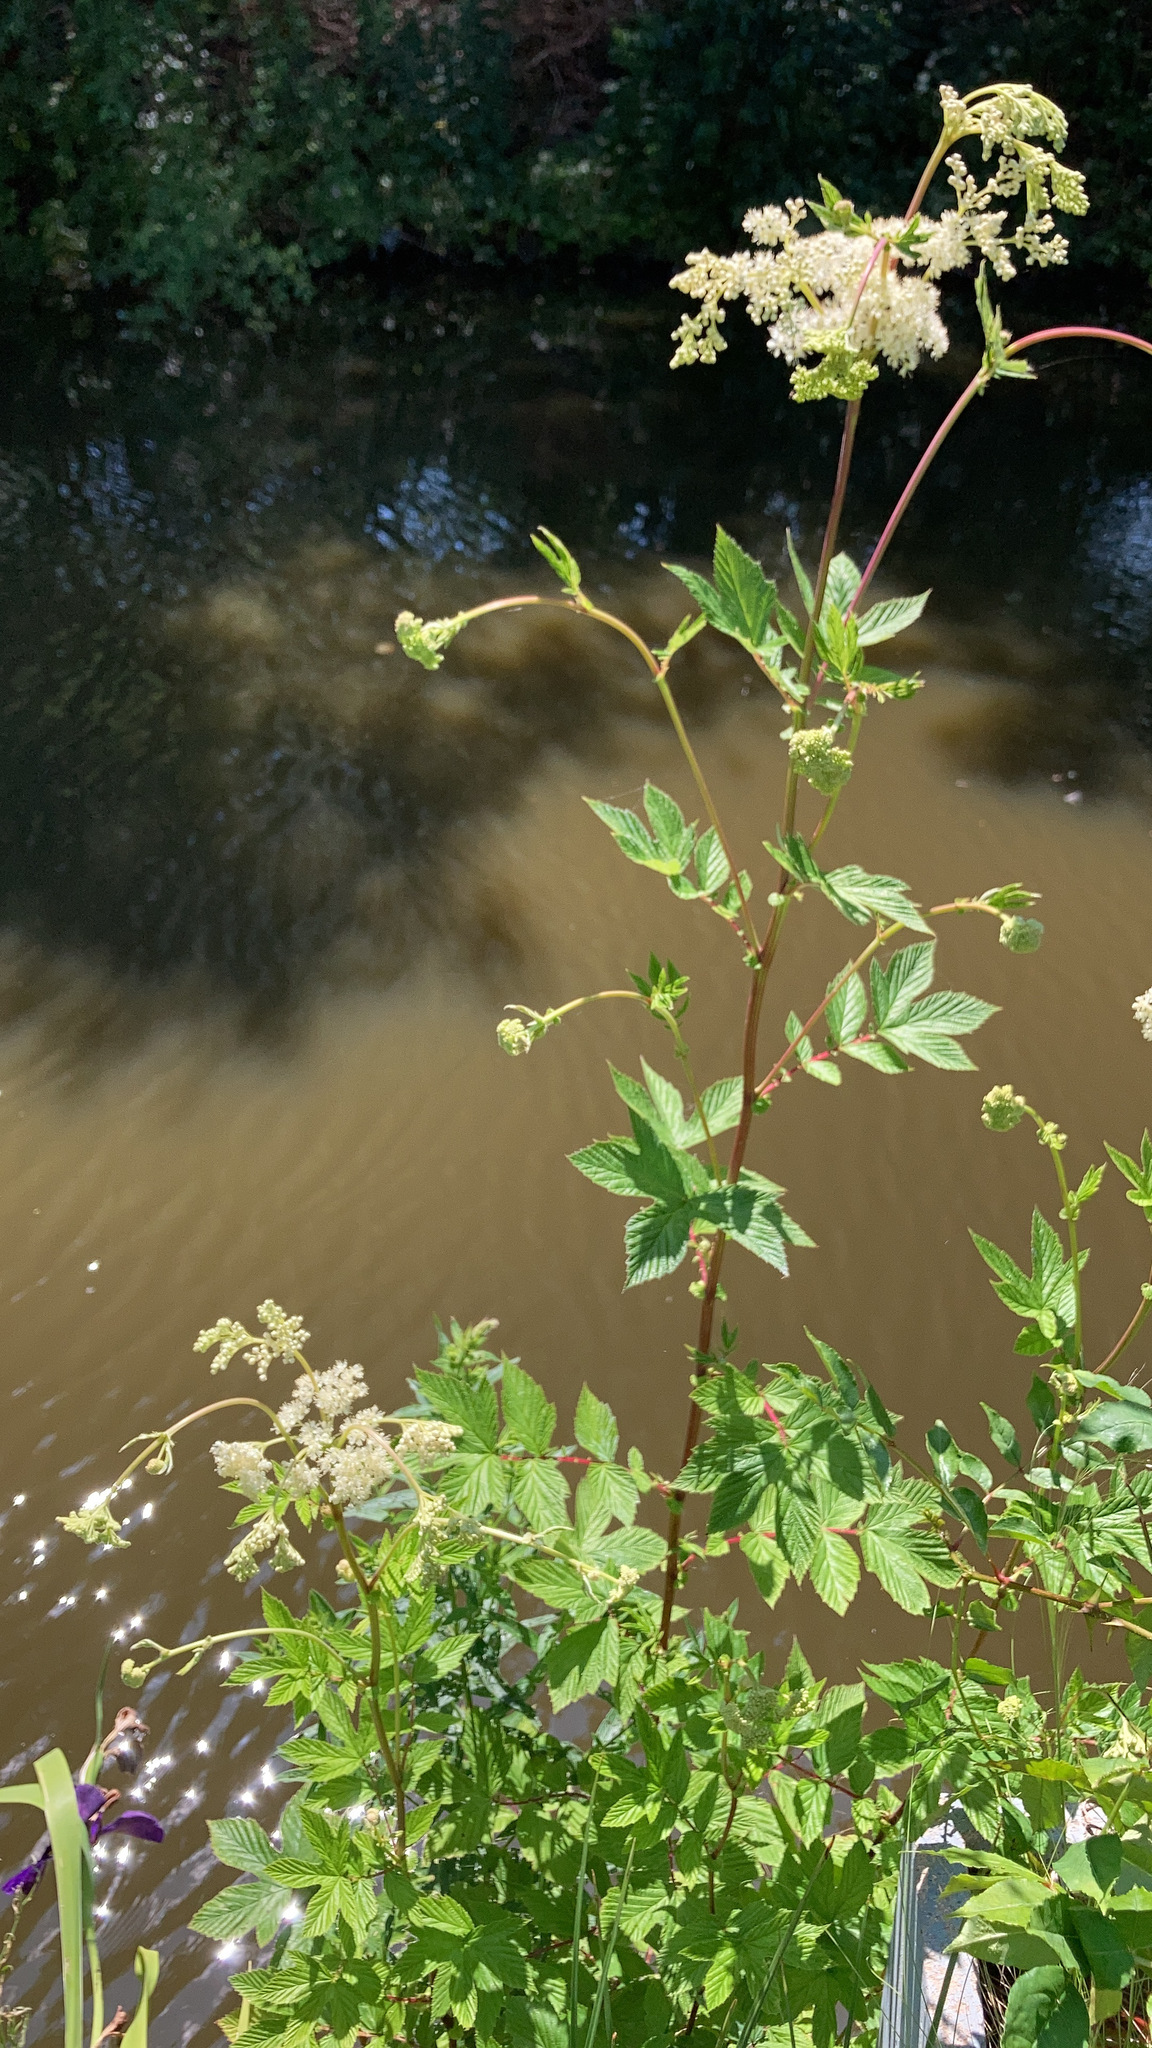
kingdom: Plantae
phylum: Tracheophyta
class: Magnoliopsida
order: Rosales
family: Rosaceae
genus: Filipendula
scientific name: Filipendula ulmaria
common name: Meadowsweet
